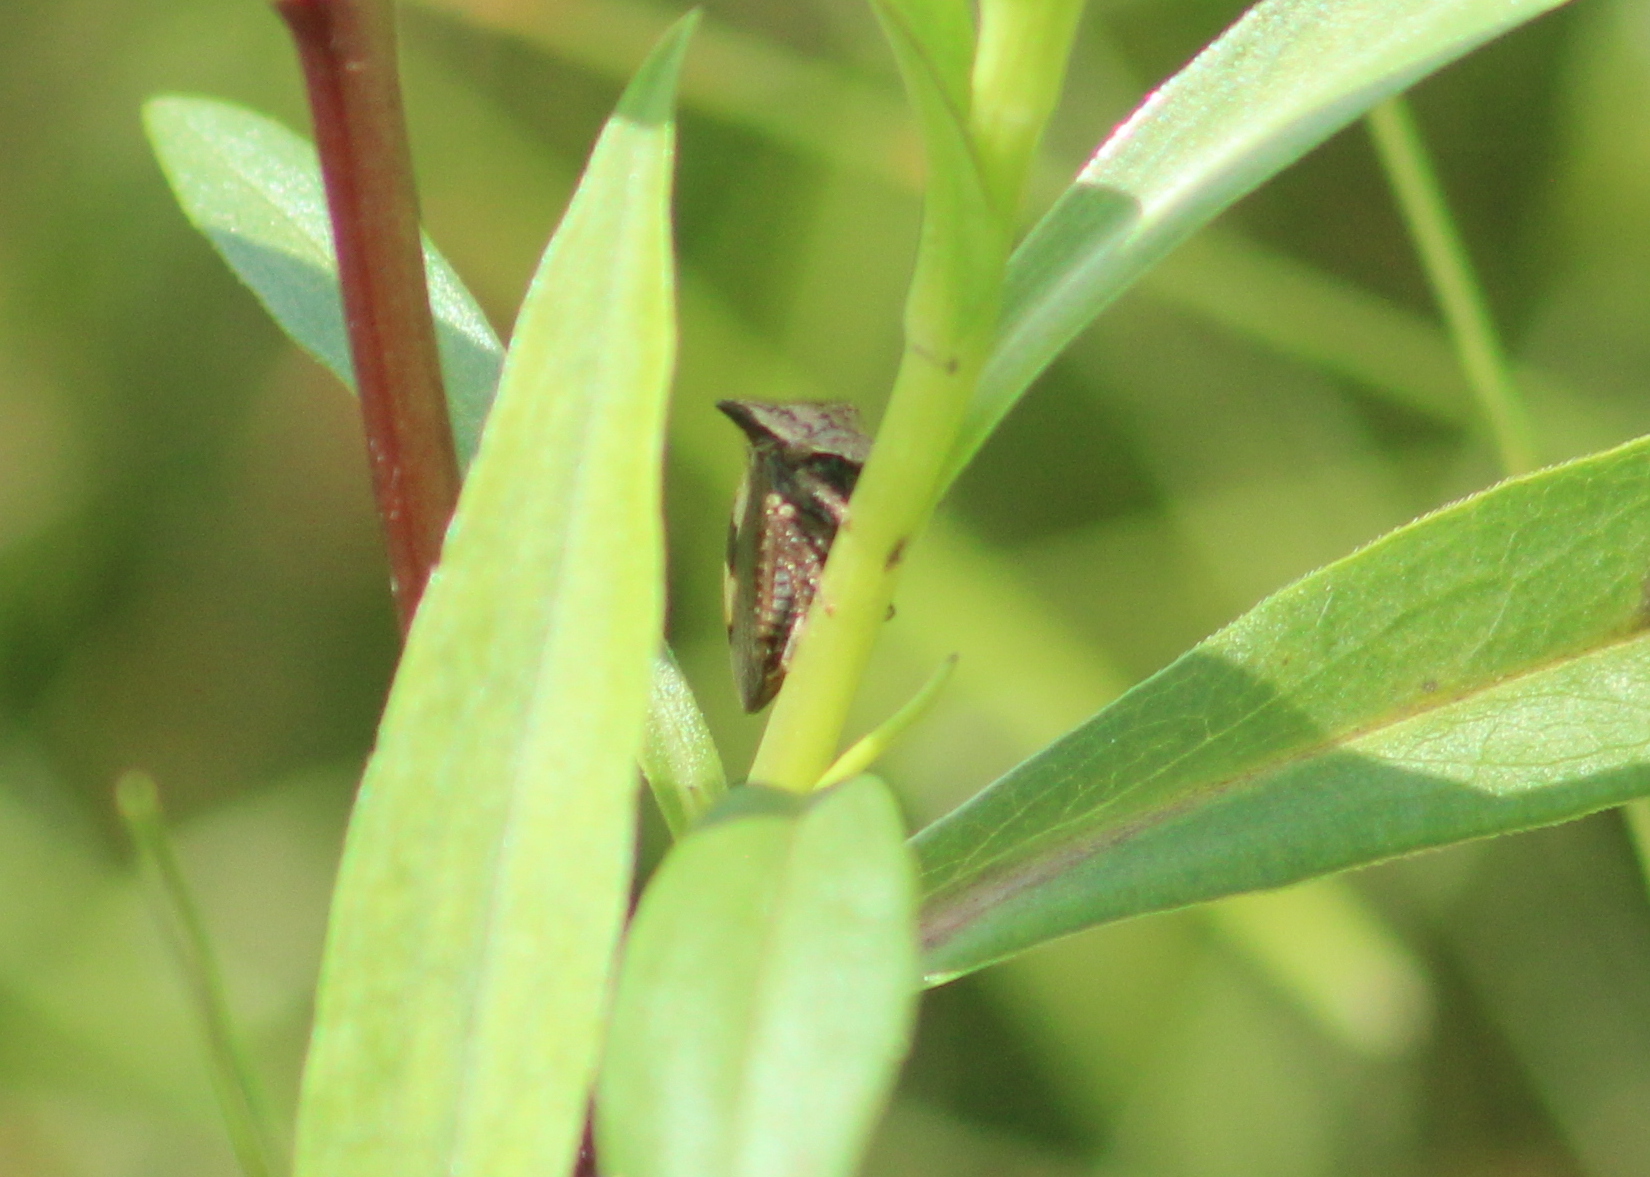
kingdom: Animalia
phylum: Arthropoda
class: Insecta
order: Hemiptera
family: Membracidae
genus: Stictocephala
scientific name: Stictocephala diceros
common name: Two-horned treehopper
